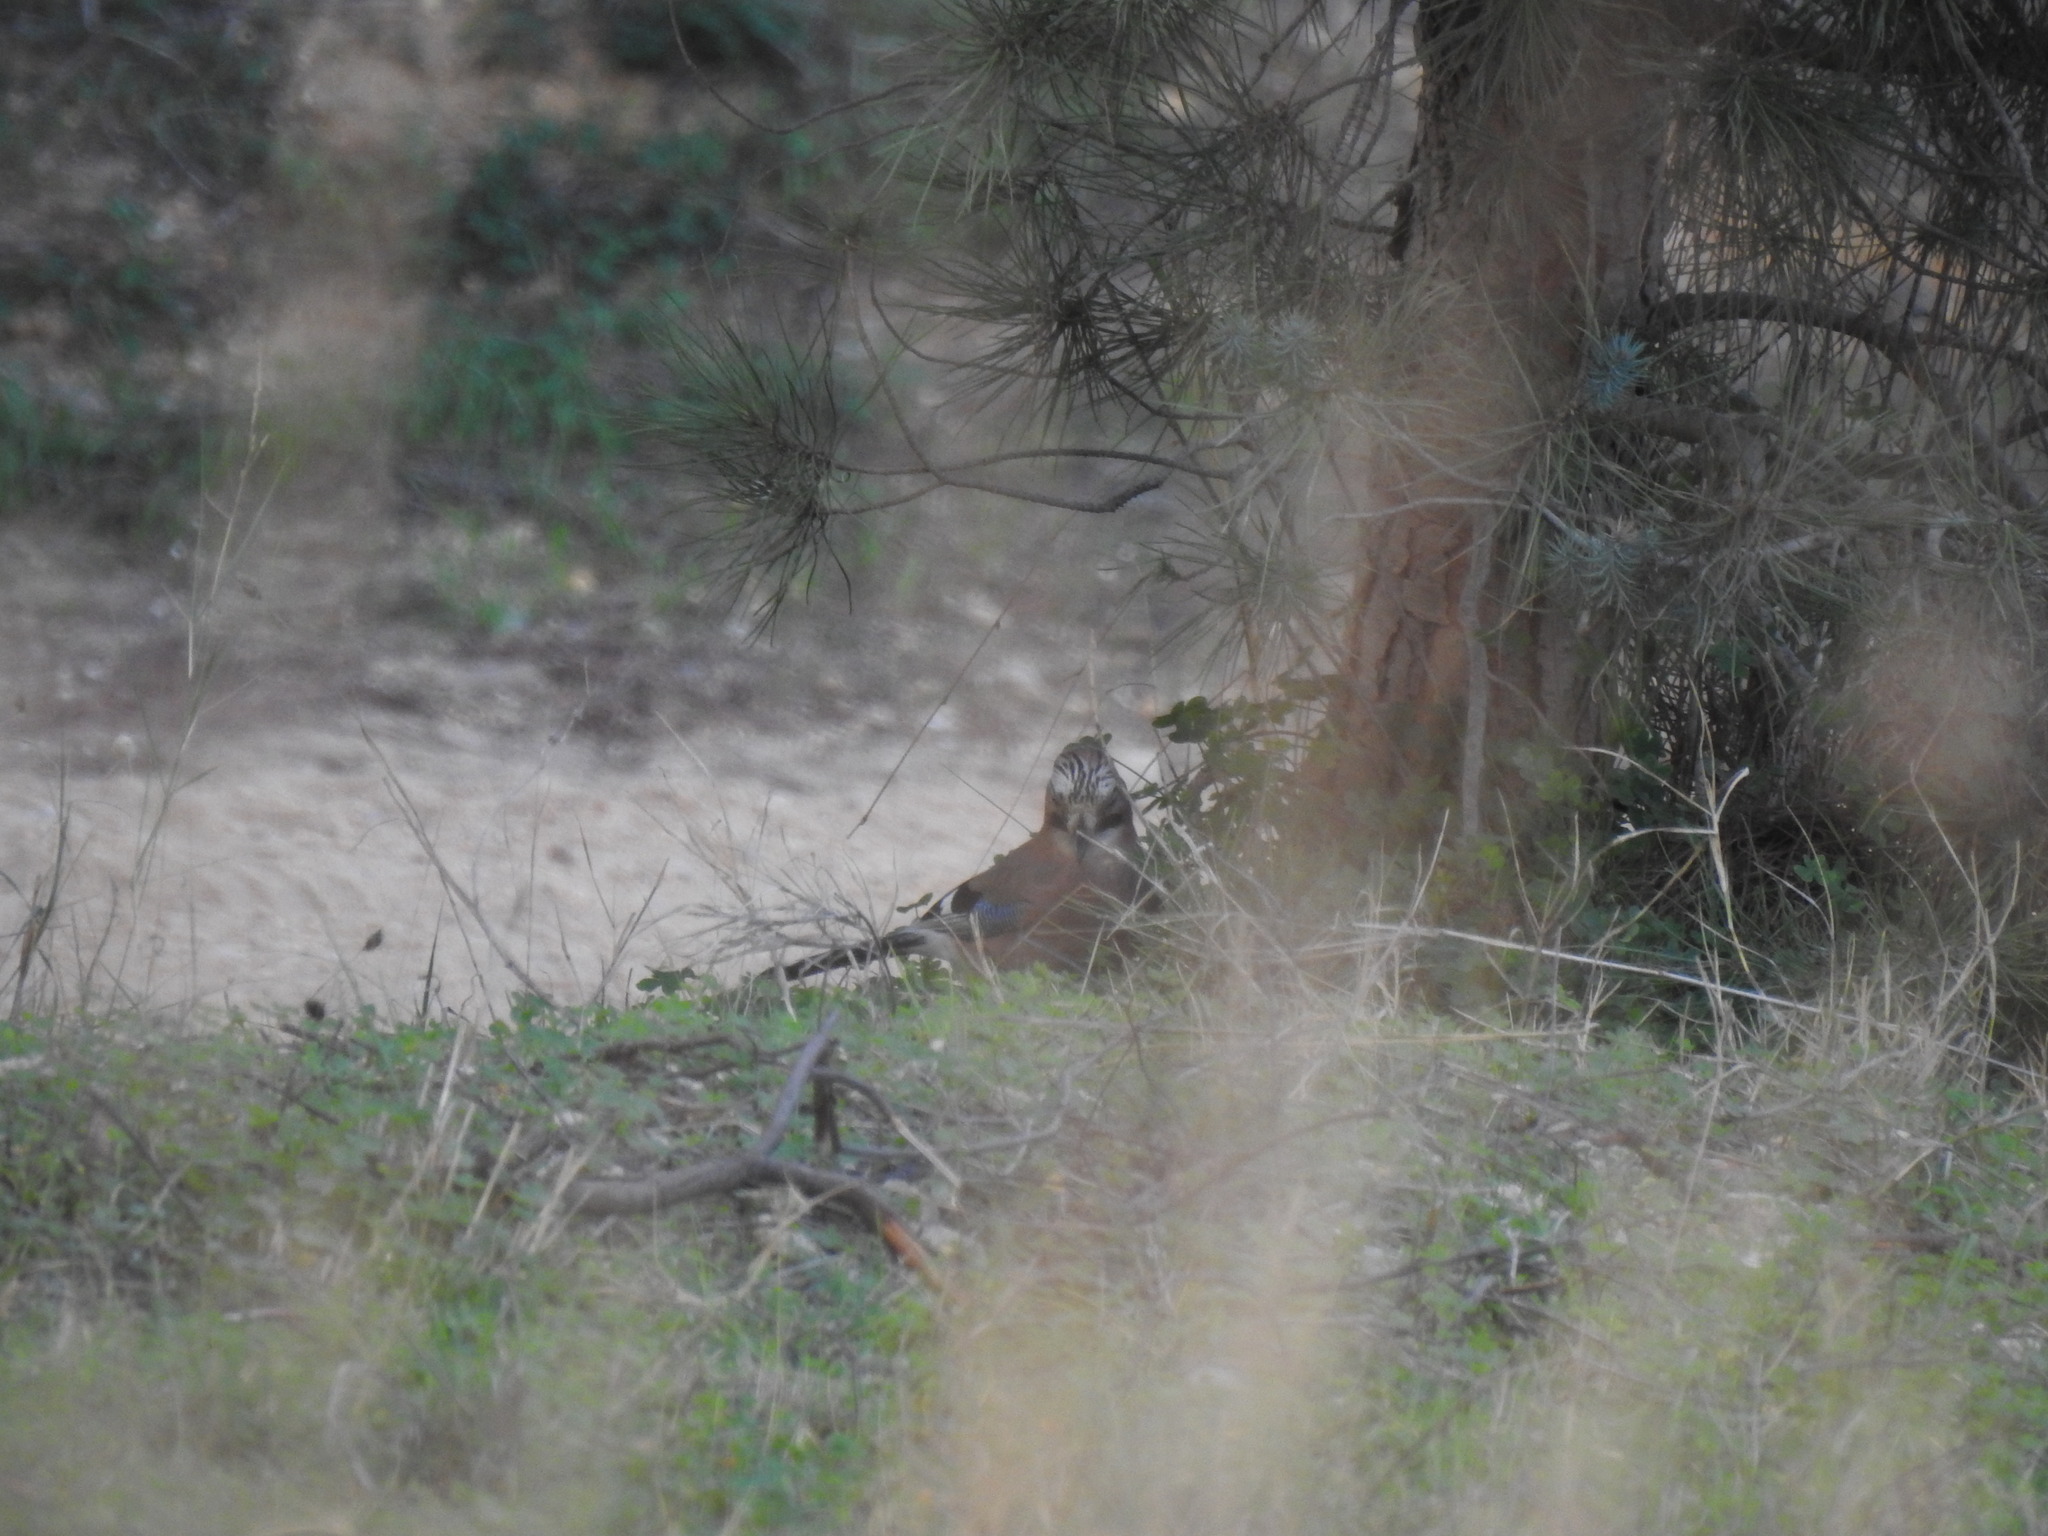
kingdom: Animalia
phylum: Chordata
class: Aves
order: Passeriformes
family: Corvidae
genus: Garrulus
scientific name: Garrulus glandarius
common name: Eurasian jay
